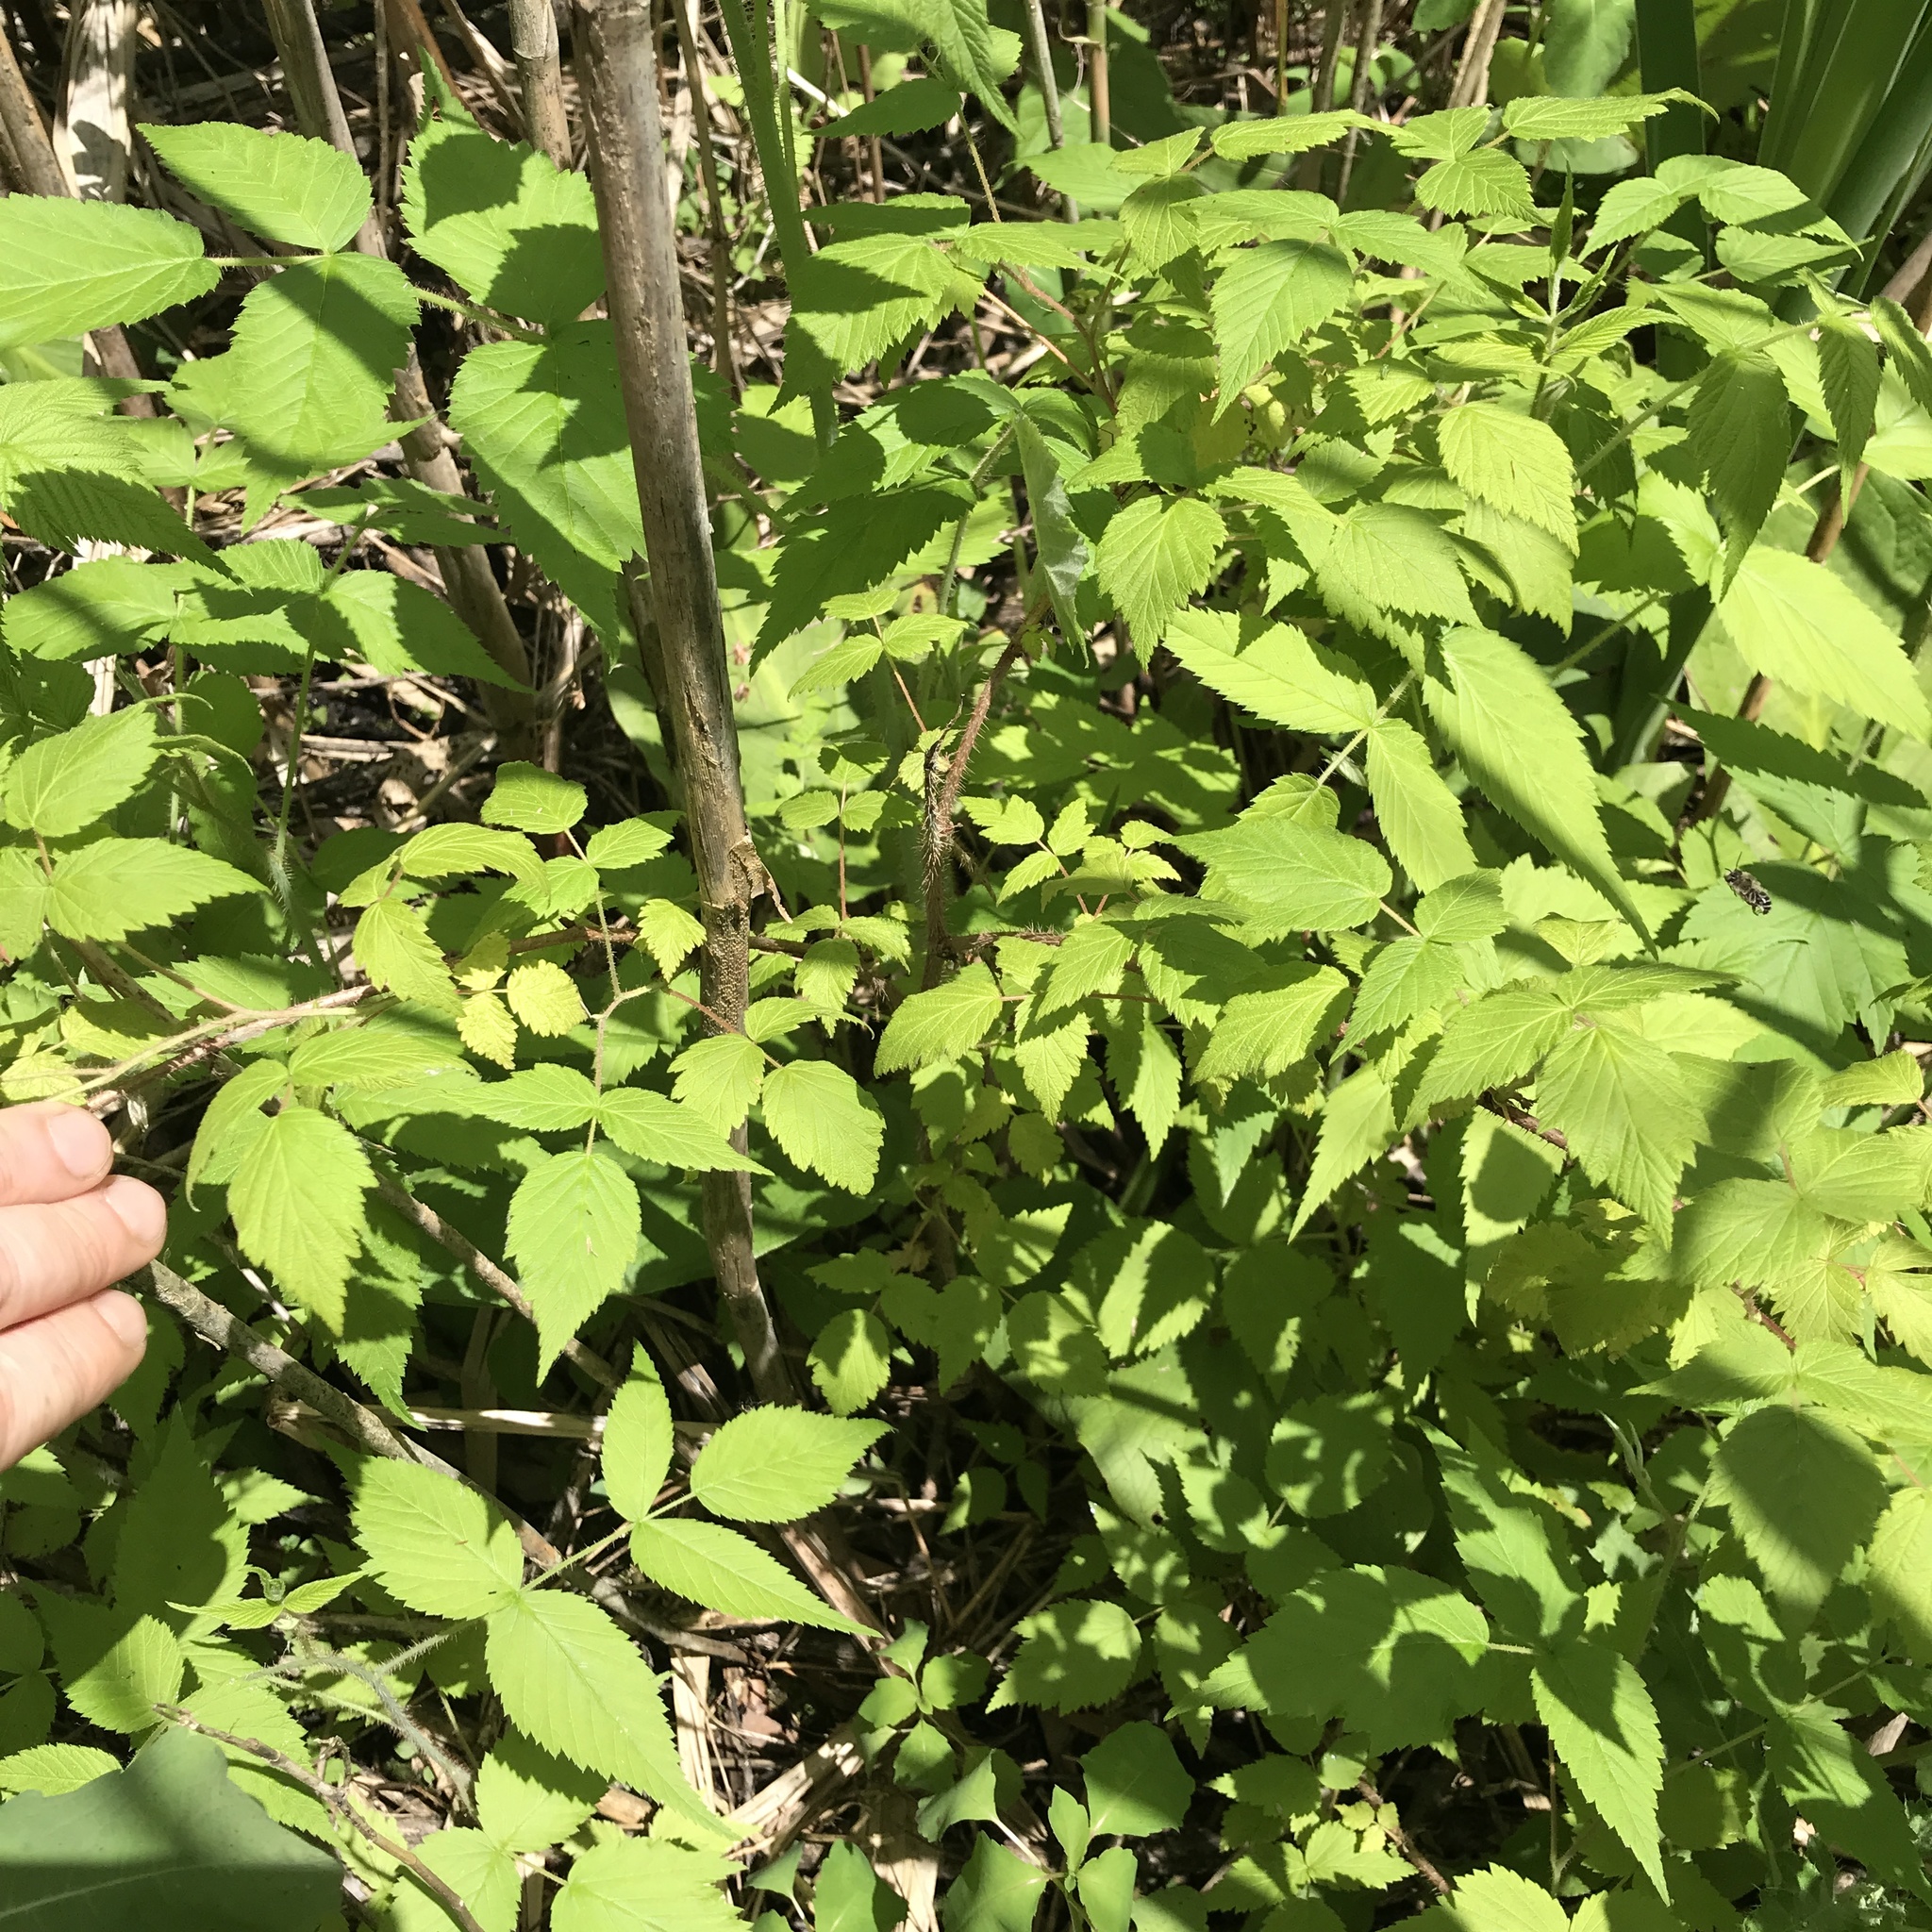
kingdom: Plantae
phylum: Tracheophyta
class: Magnoliopsida
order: Rosales
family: Rosaceae
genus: Rubus
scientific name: Rubus idaeus
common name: Raspberry
